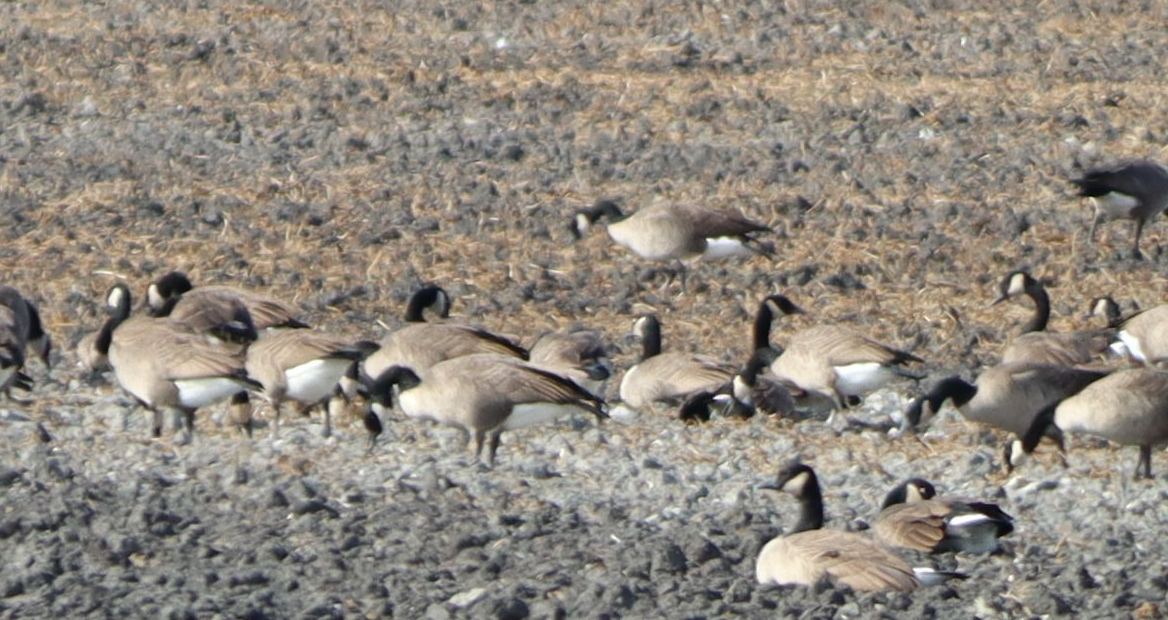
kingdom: Animalia
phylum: Chordata
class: Aves
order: Anseriformes
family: Anatidae
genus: Branta
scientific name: Branta canadensis
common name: Canada goose
